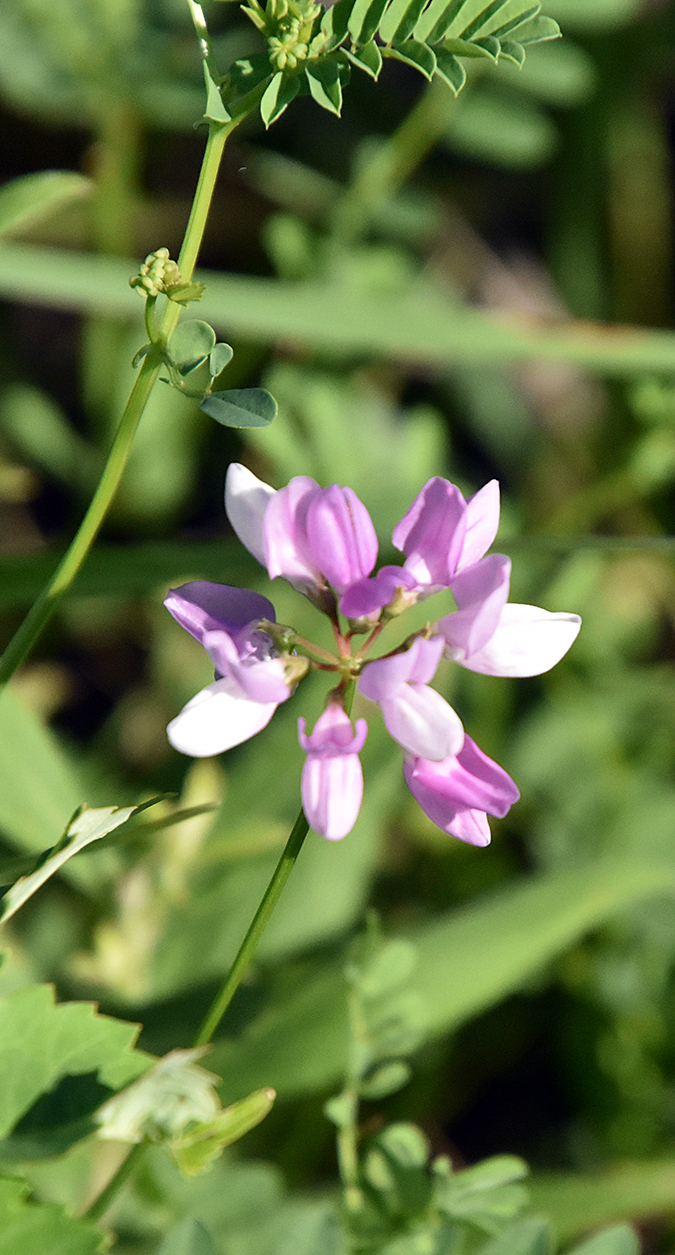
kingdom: Plantae
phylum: Tracheophyta
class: Magnoliopsida
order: Fabales
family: Fabaceae
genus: Coronilla
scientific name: Coronilla varia
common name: Crownvetch
